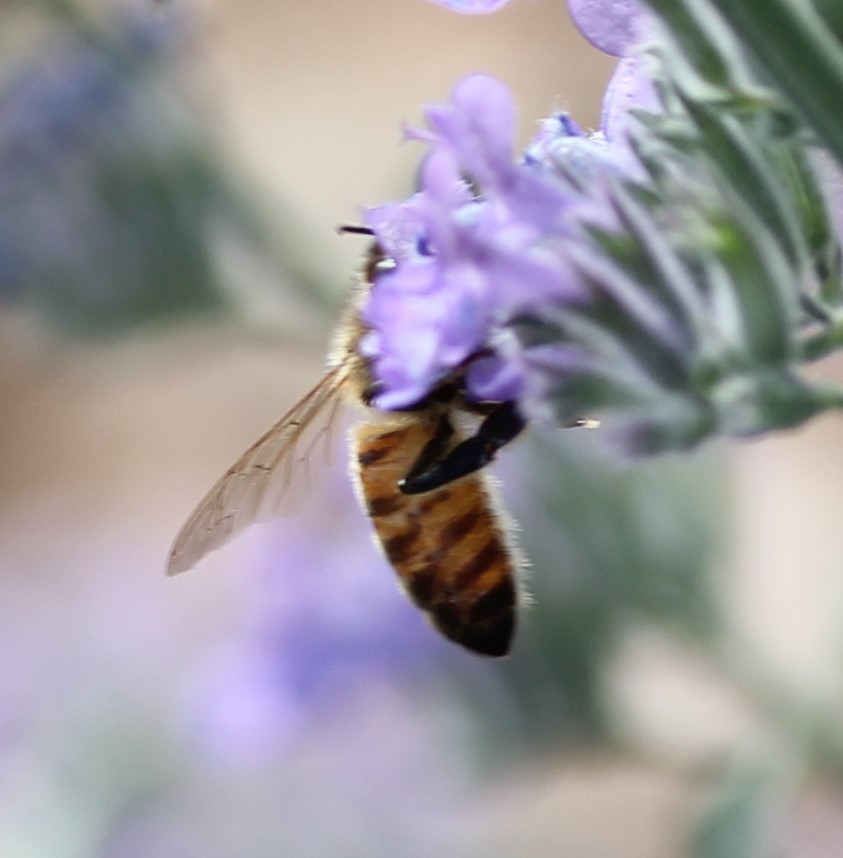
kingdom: Animalia
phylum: Arthropoda
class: Insecta
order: Hymenoptera
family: Apidae
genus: Apis
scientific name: Apis mellifera
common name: Honey bee
